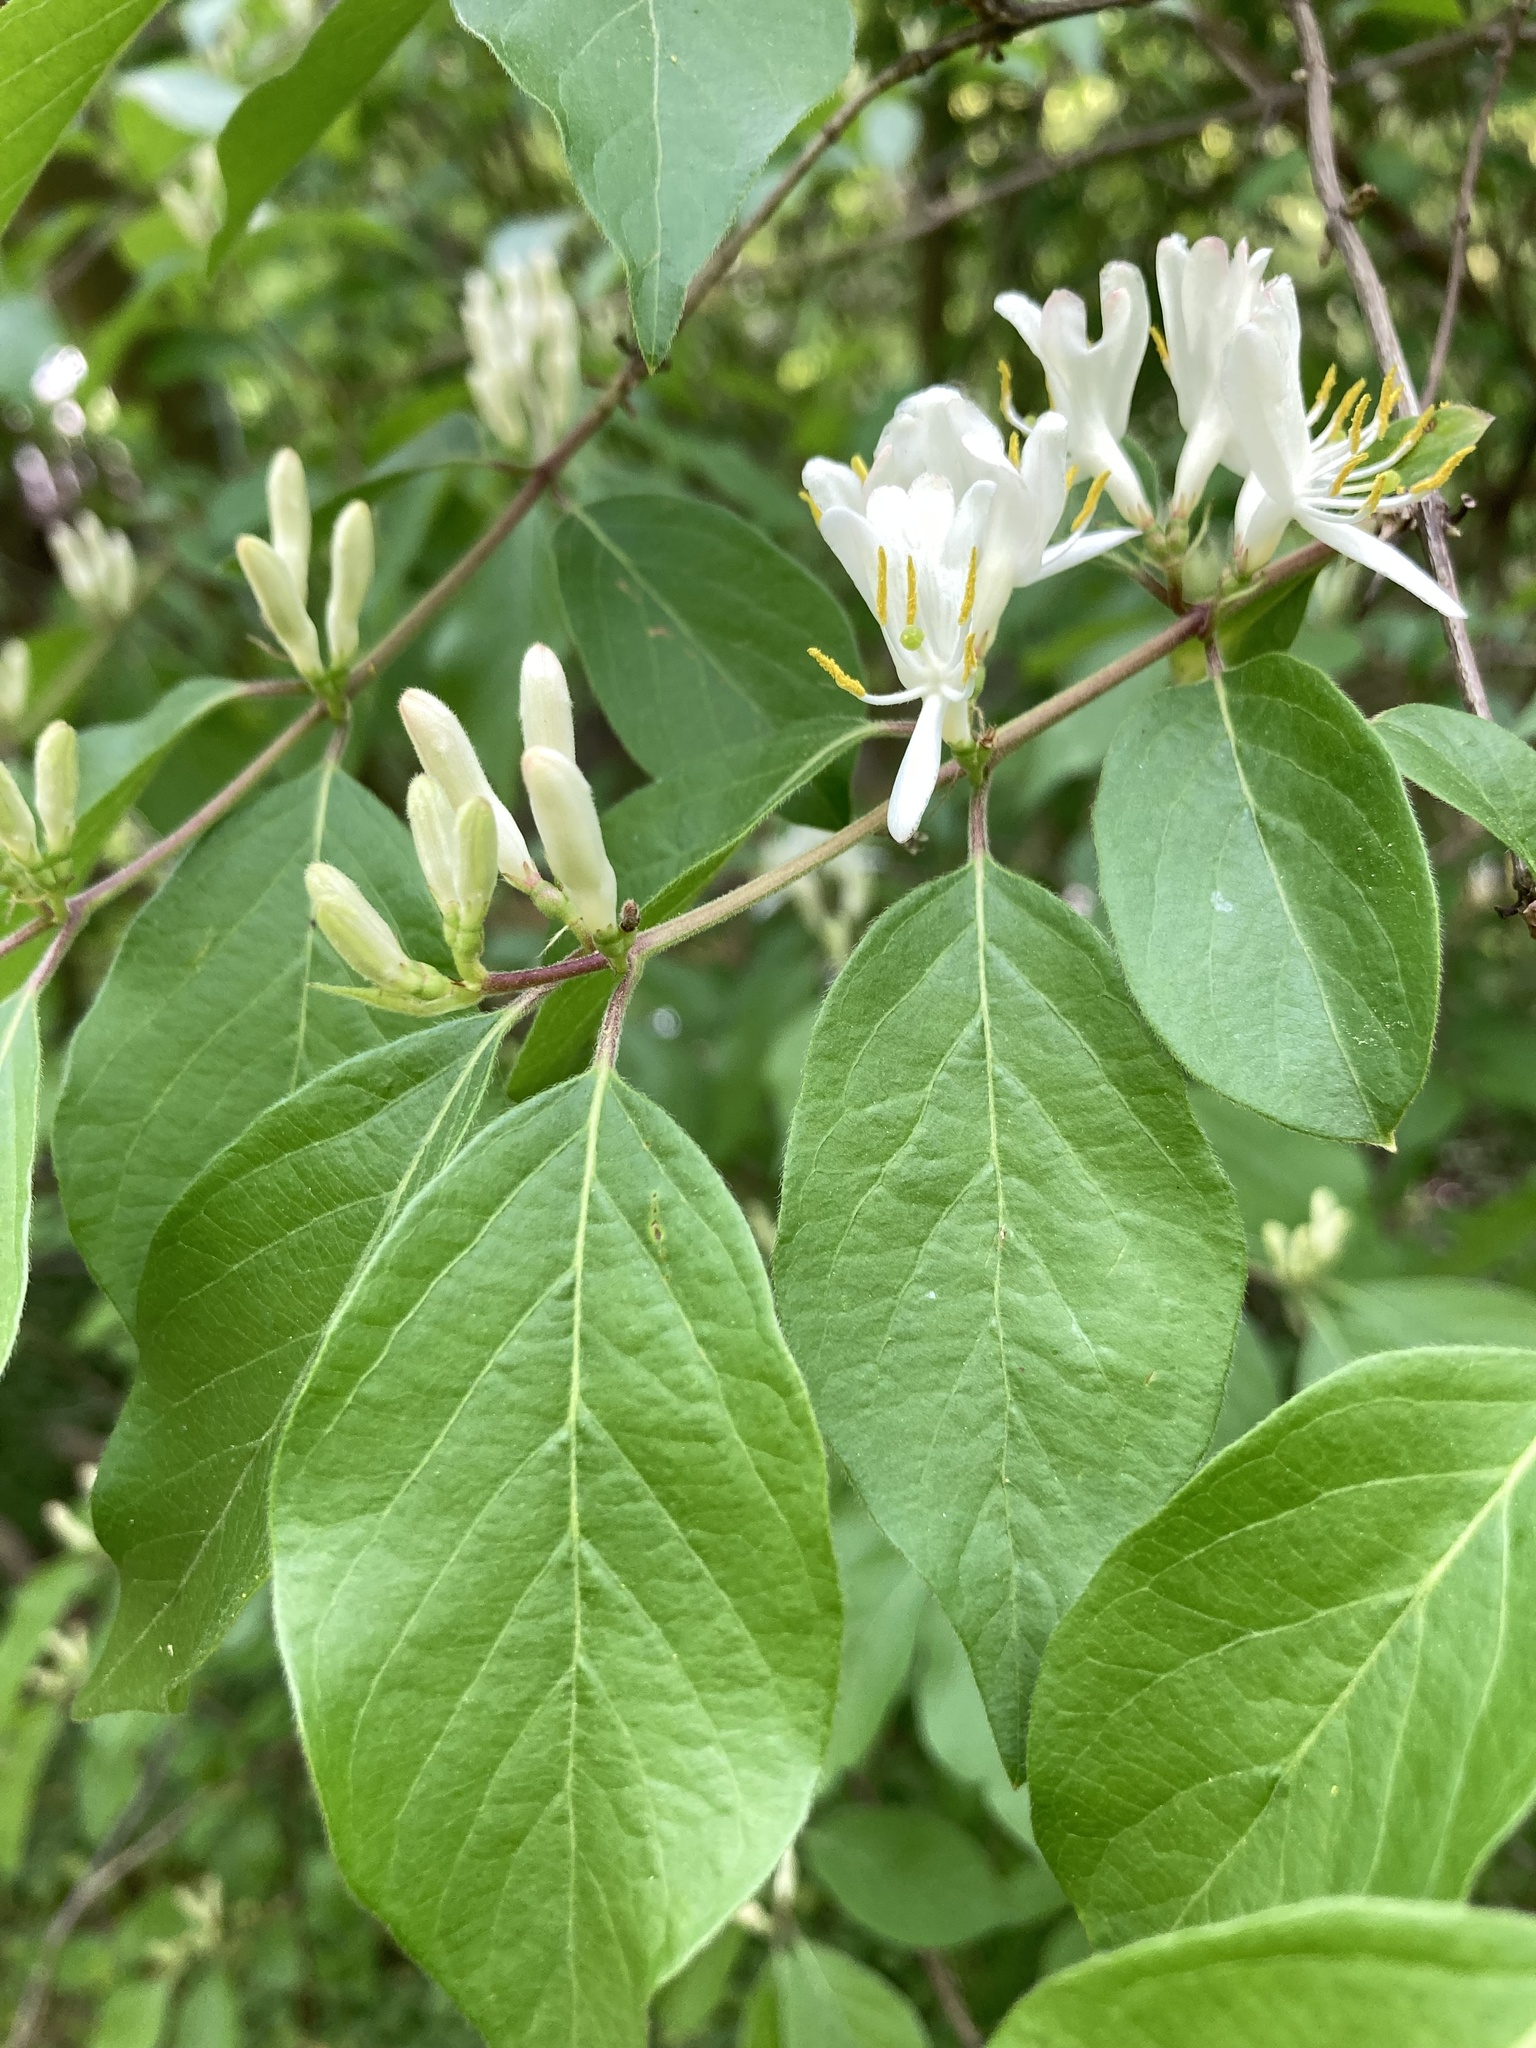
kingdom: Plantae
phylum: Tracheophyta
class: Magnoliopsida
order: Dipsacales
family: Caprifoliaceae
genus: Lonicera
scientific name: Lonicera maackii
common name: Amur honeysuckle
